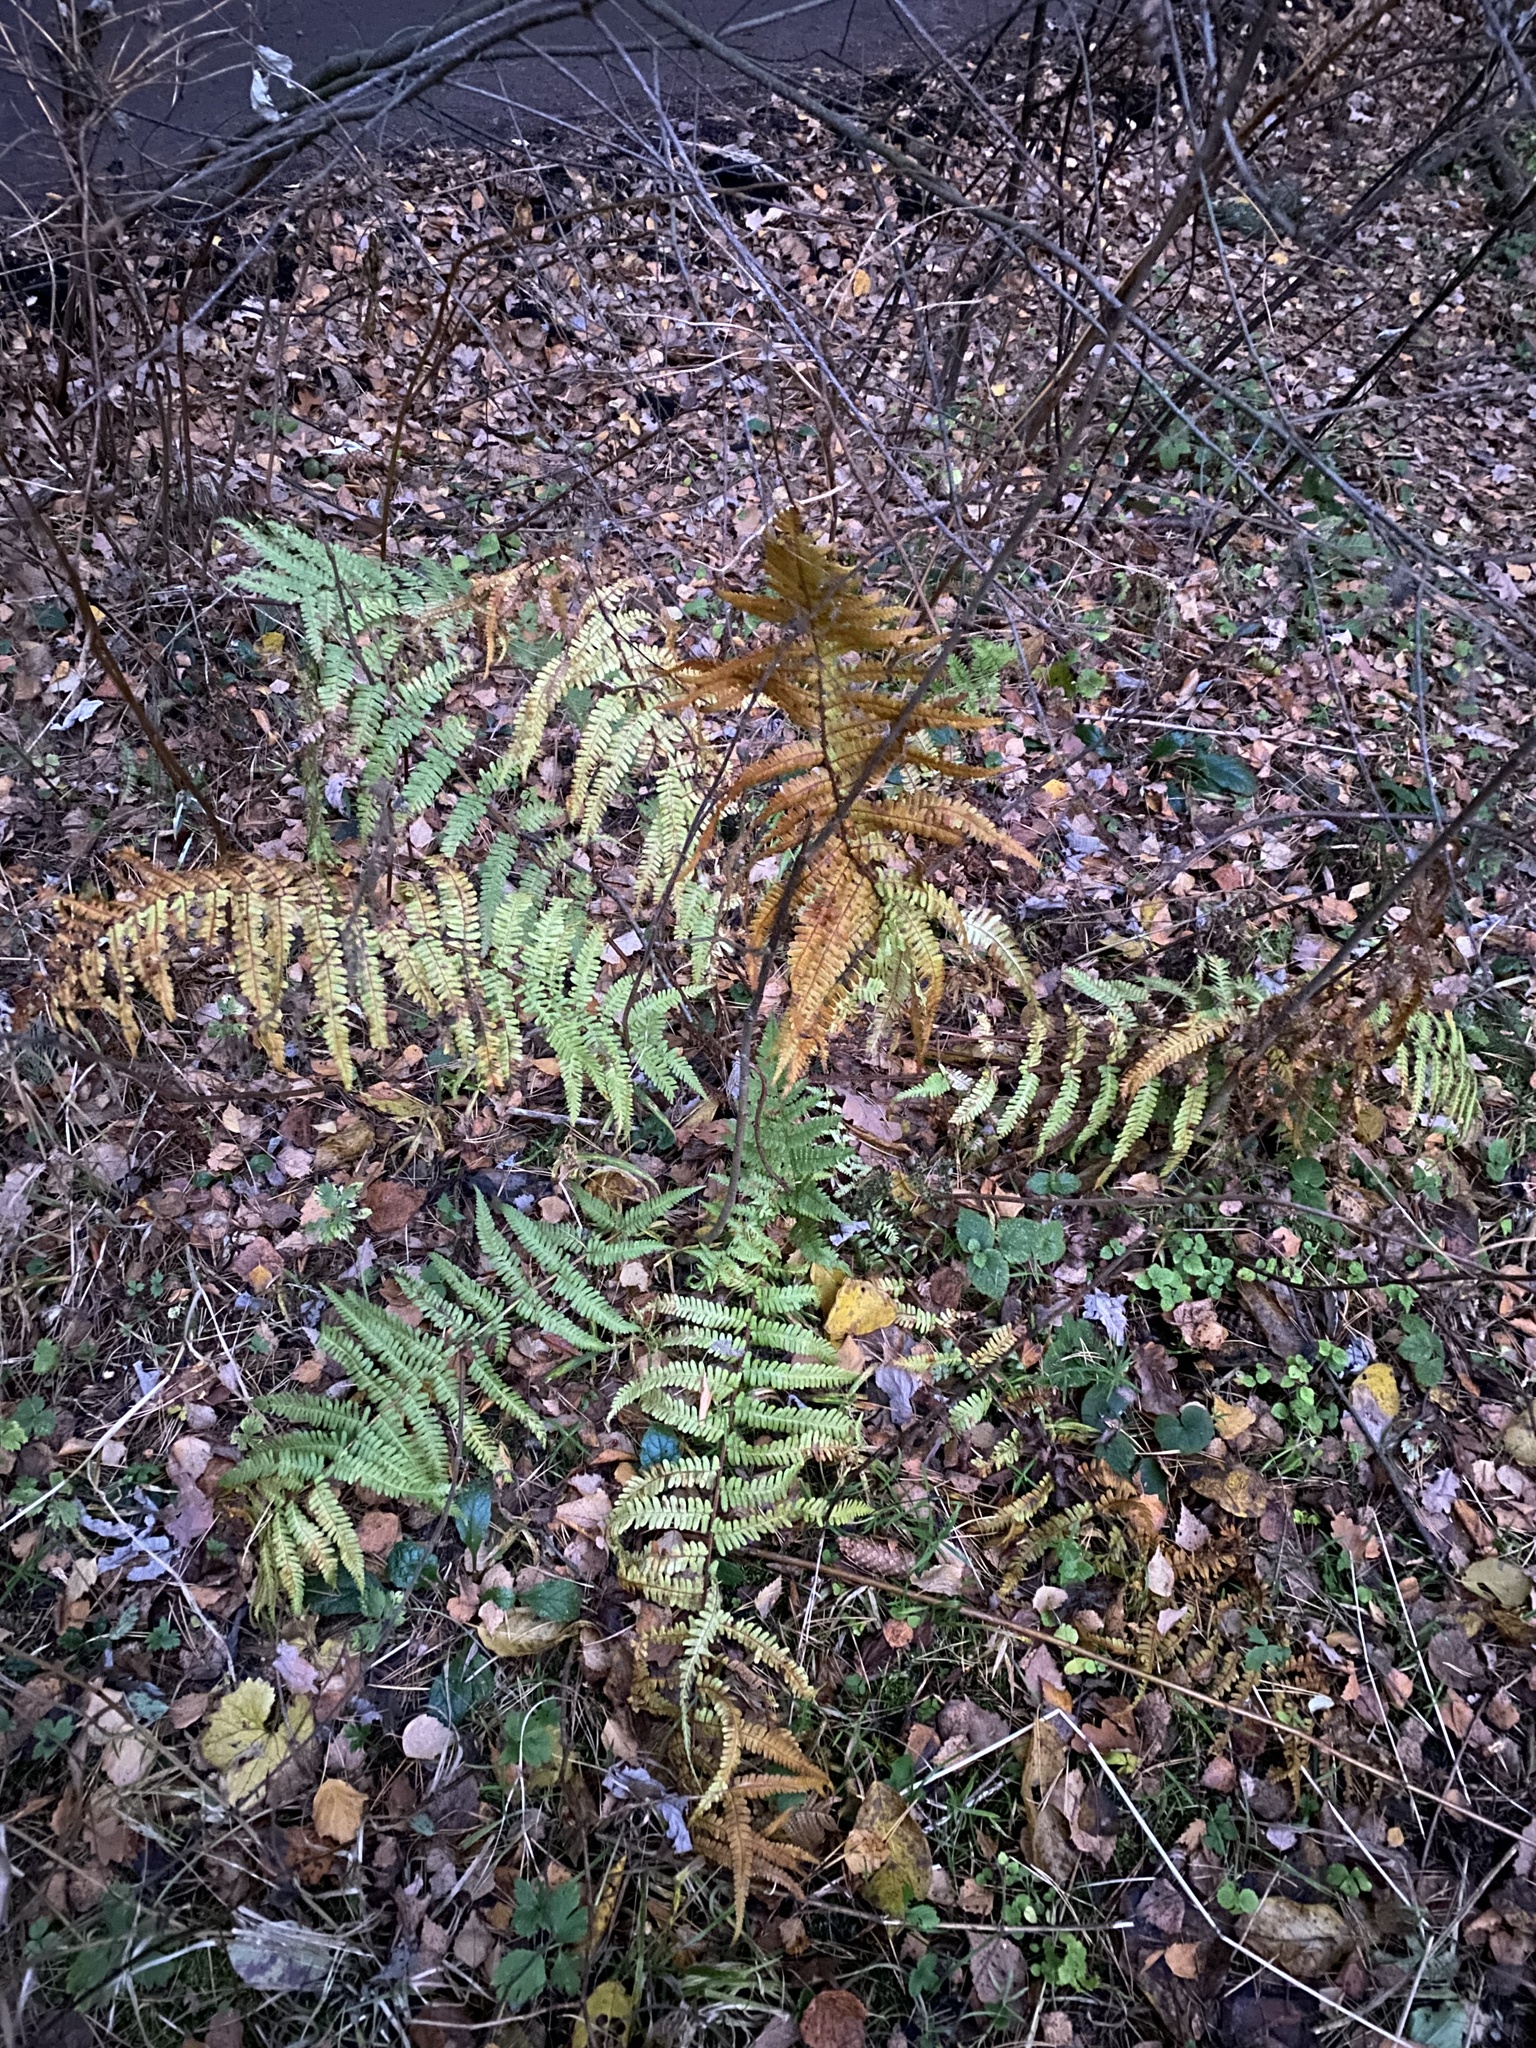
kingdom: Plantae
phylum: Tracheophyta
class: Polypodiopsida
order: Polypodiales
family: Dryopteridaceae
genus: Dryopteris
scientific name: Dryopteris filix-mas
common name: Male fern
